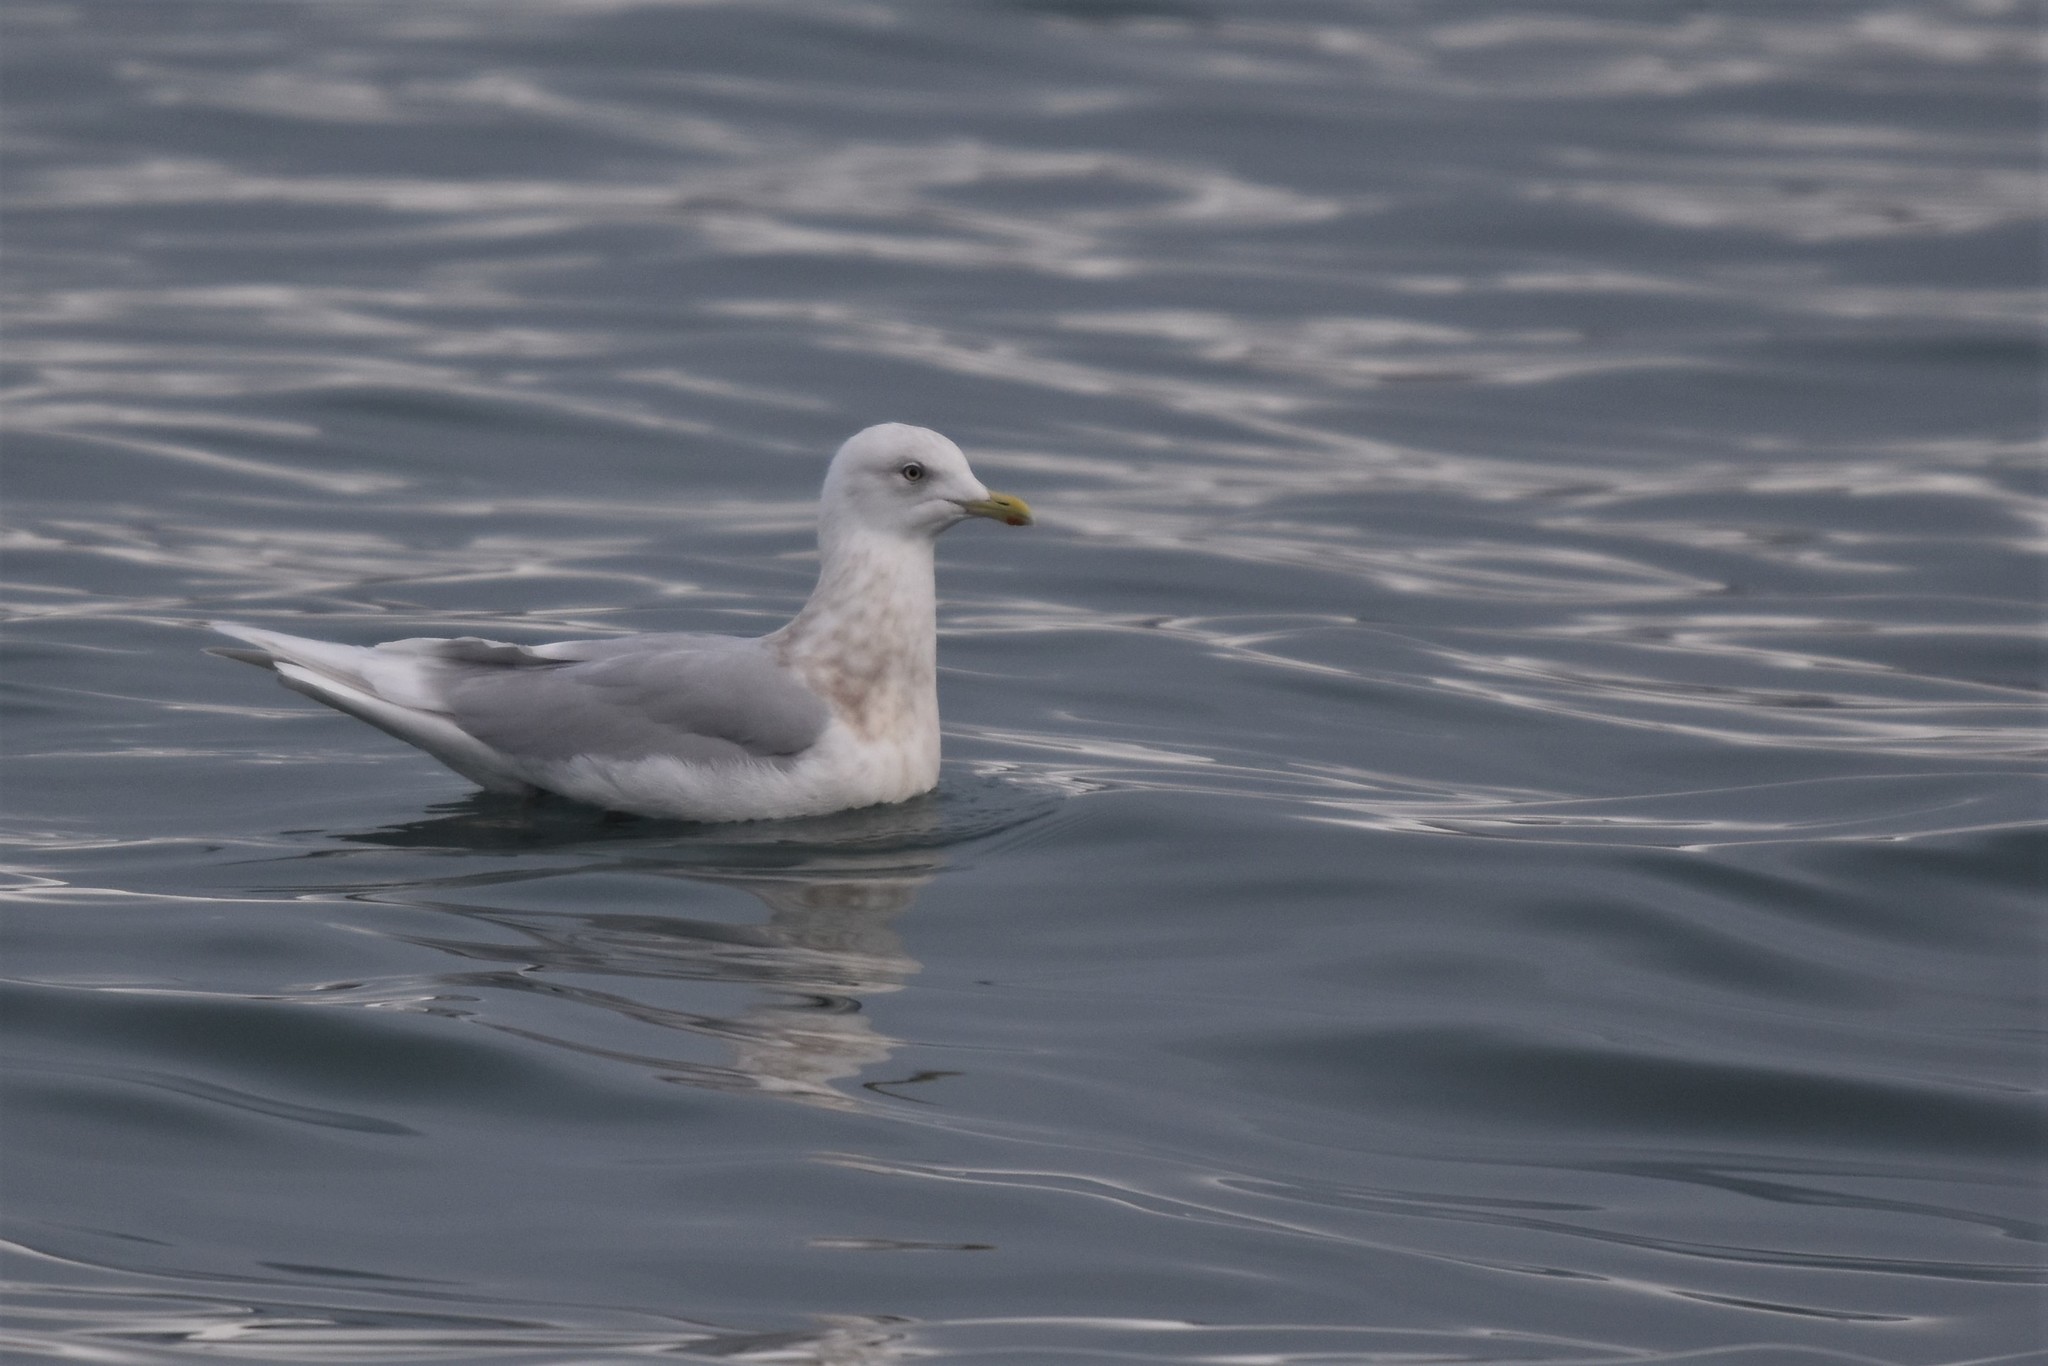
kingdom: Animalia
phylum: Chordata
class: Aves
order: Charadriiformes
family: Laridae
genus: Larus
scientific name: Larus glaucoides
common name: Iceland gull
